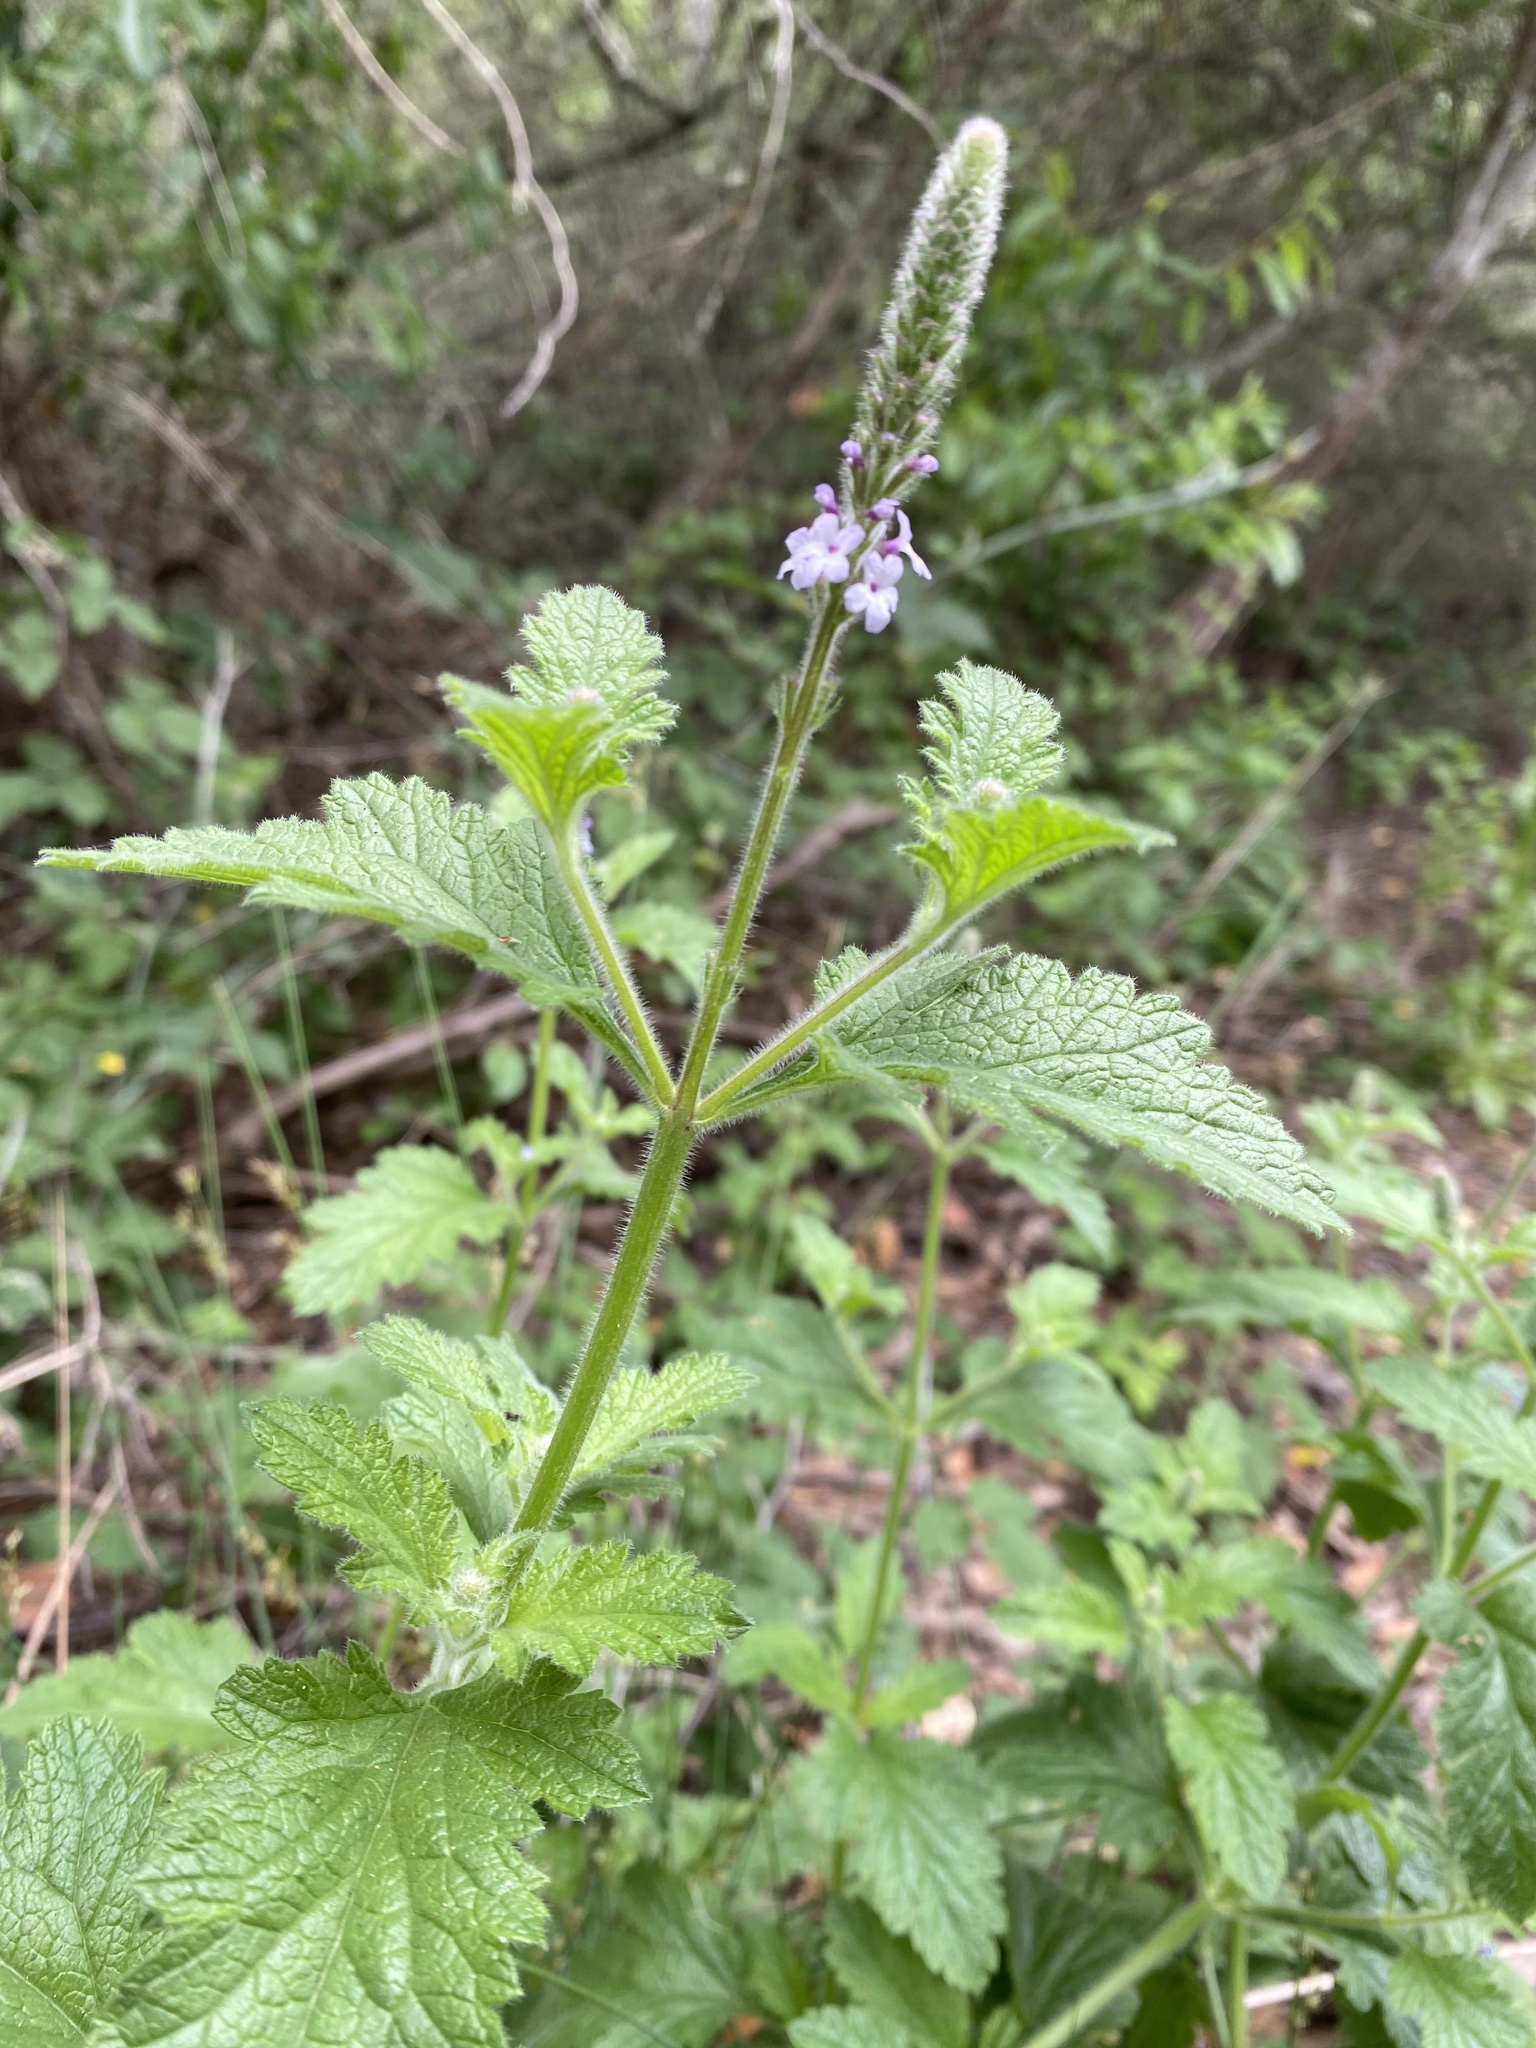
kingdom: Plantae
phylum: Tracheophyta
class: Magnoliopsida
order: Lamiales
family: Verbenaceae
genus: Verbena
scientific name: Verbena lasiostachys
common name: Vervain
